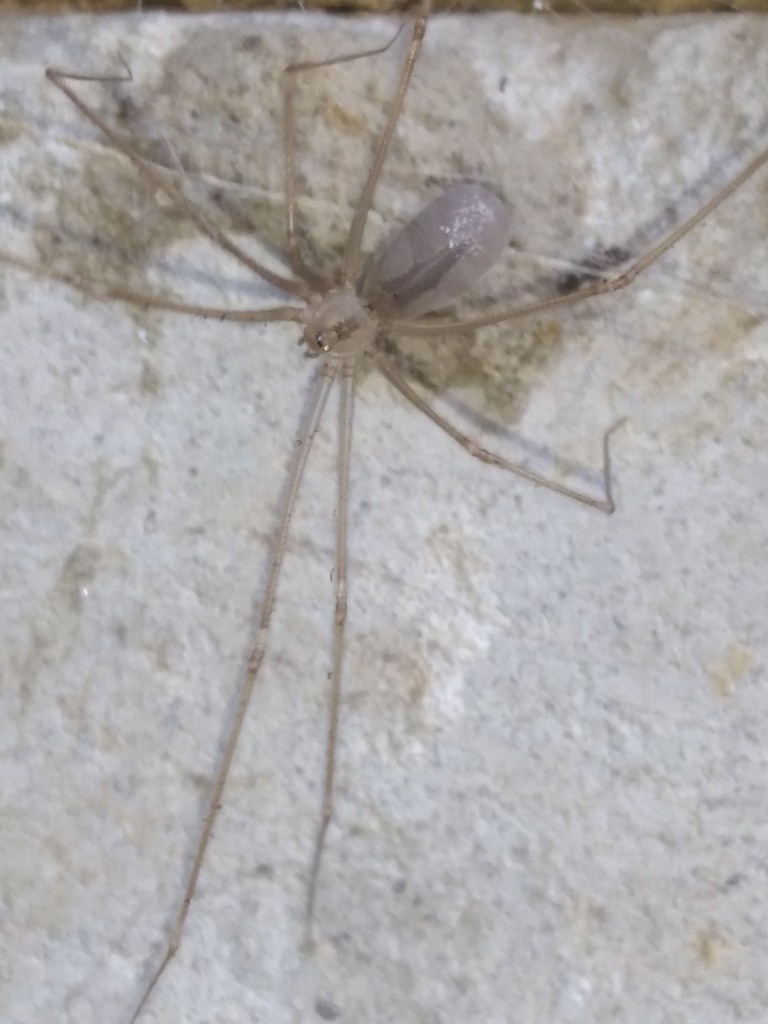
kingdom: Animalia
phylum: Arthropoda
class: Arachnida
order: Araneae
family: Pholcidae
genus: Pholcus
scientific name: Pholcus ponticus
